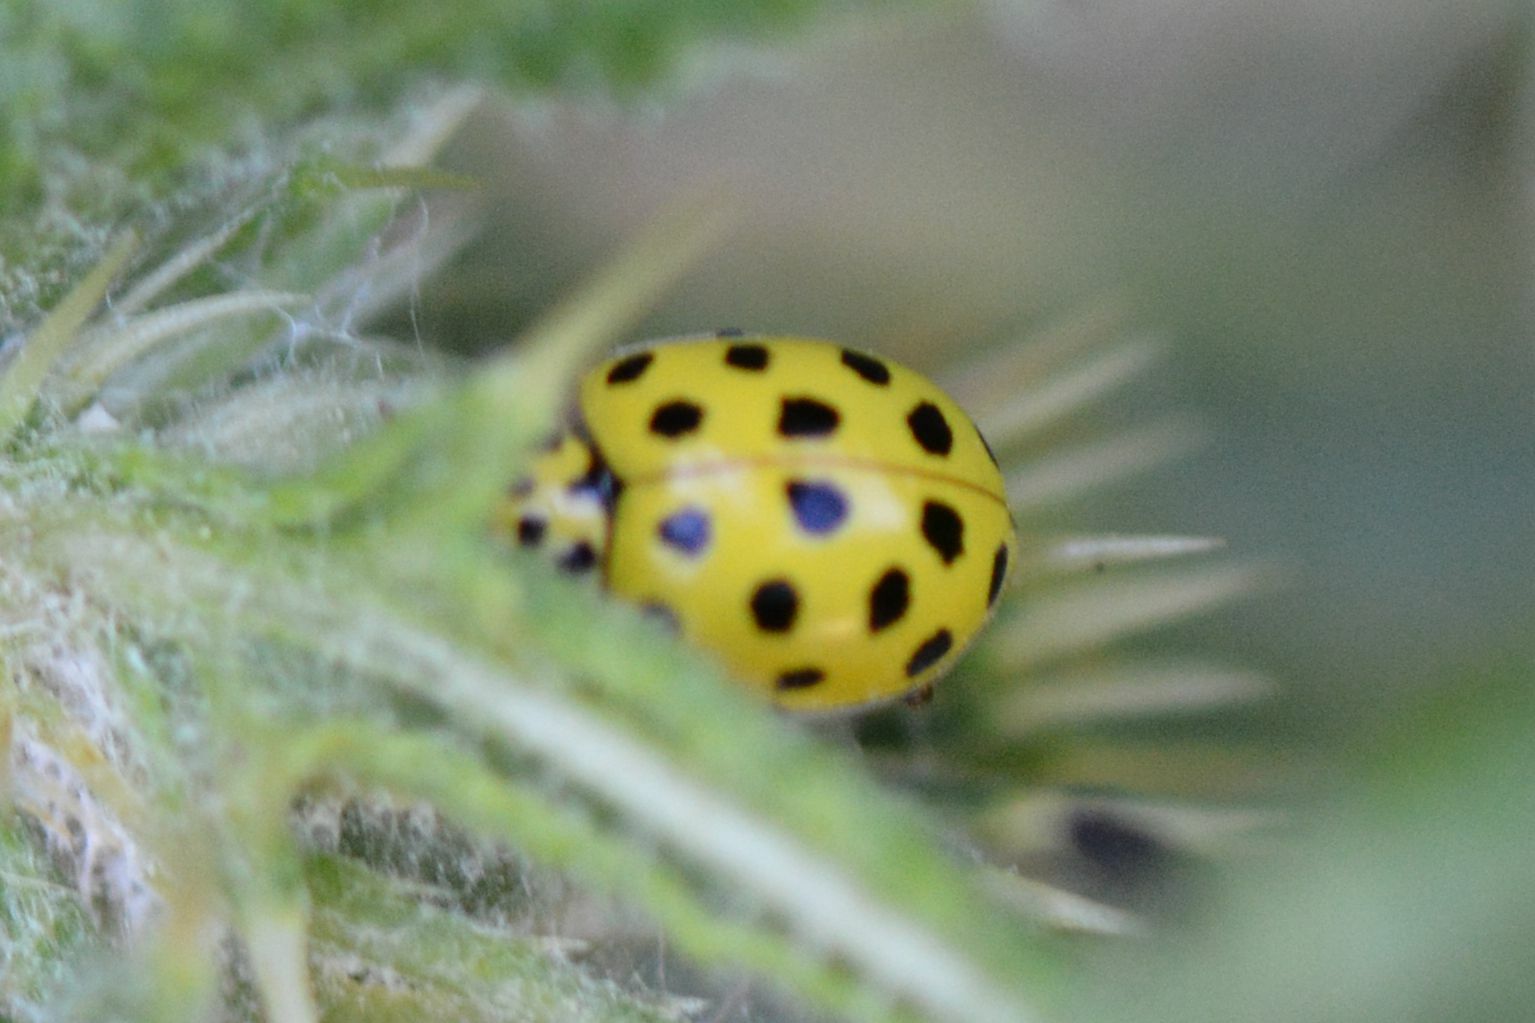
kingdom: Animalia
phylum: Arthropoda
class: Insecta
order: Coleoptera
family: Coccinellidae
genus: Psyllobora
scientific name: Psyllobora vigintiduopunctata
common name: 22-spot ladybird
